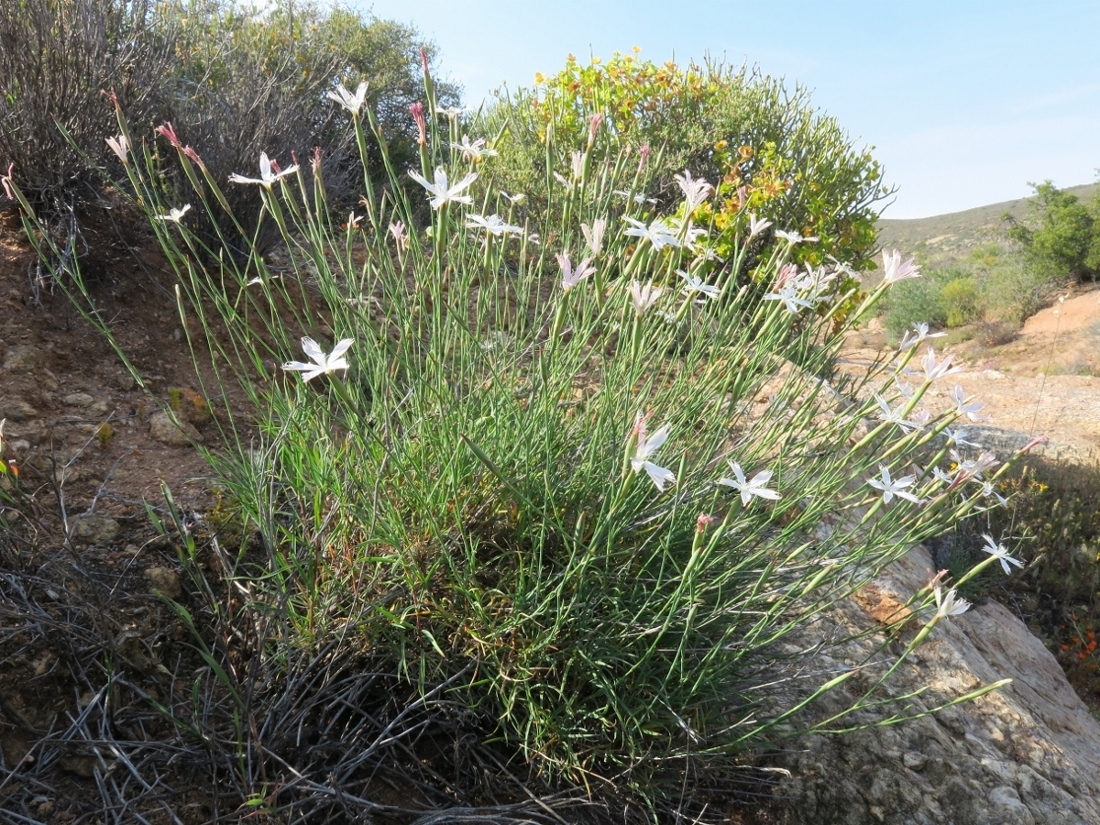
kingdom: Plantae
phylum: Tracheophyta
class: Magnoliopsida
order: Caryophyllales
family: Caryophyllaceae
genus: Dianthus
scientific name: Dianthus namaensis
